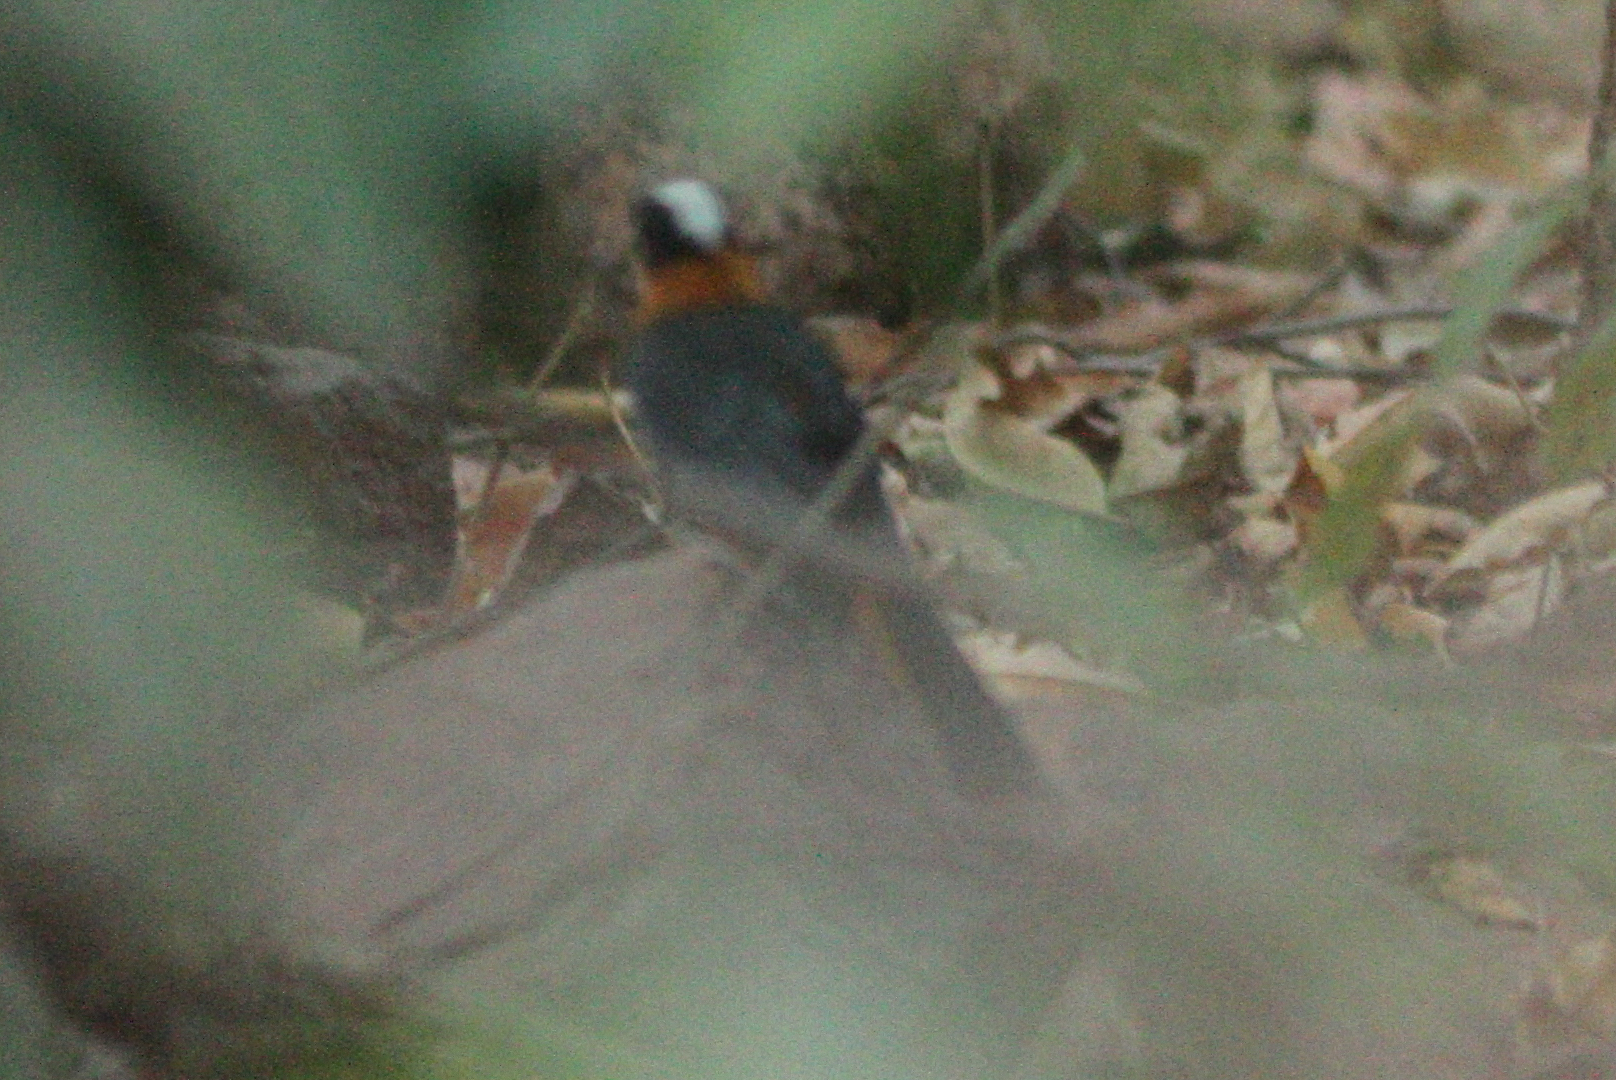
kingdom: Animalia
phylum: Chordata
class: Aves
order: Passeriformes
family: Muscicapidae
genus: Cossypha
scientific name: Cossypha niveicapilla
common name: Snowy-crowned robin-chat
